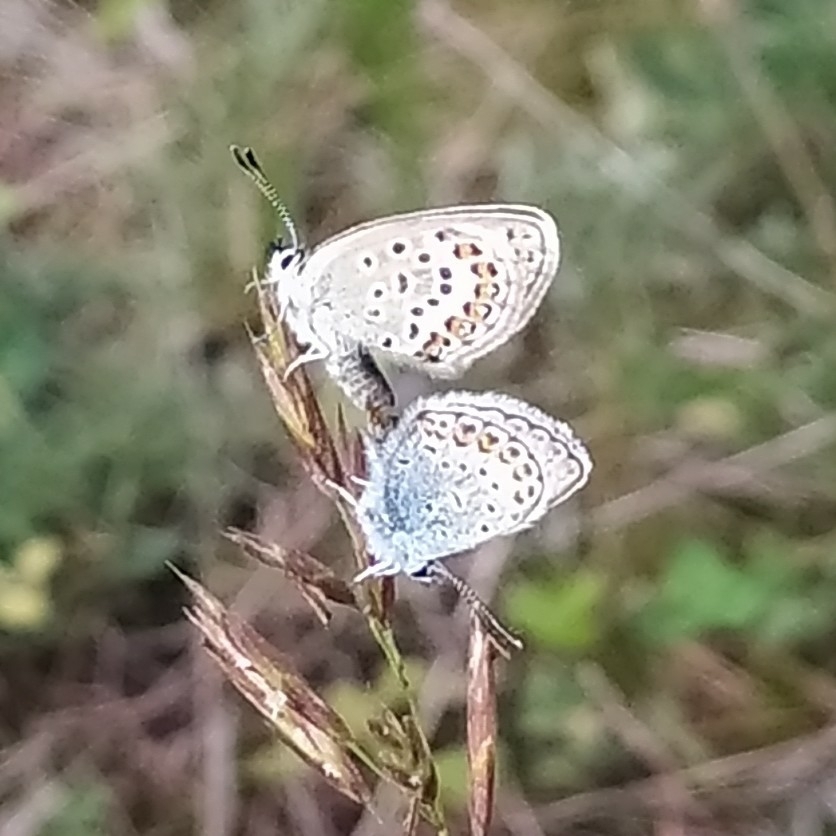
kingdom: Animalia
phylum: Arthropoda
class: Insecta
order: Lepidoptera
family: Lycaenidae
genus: Plebejus
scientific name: Plebejus argus
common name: Silver-studded blue
